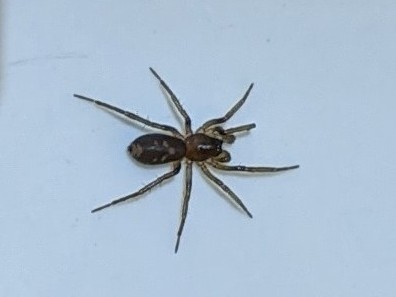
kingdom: Animalia
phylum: Arthropoda
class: Arachnida
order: Araneae
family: Corinnidae
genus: Falconina
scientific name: Falconina gracilis
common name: Antmimic spider
